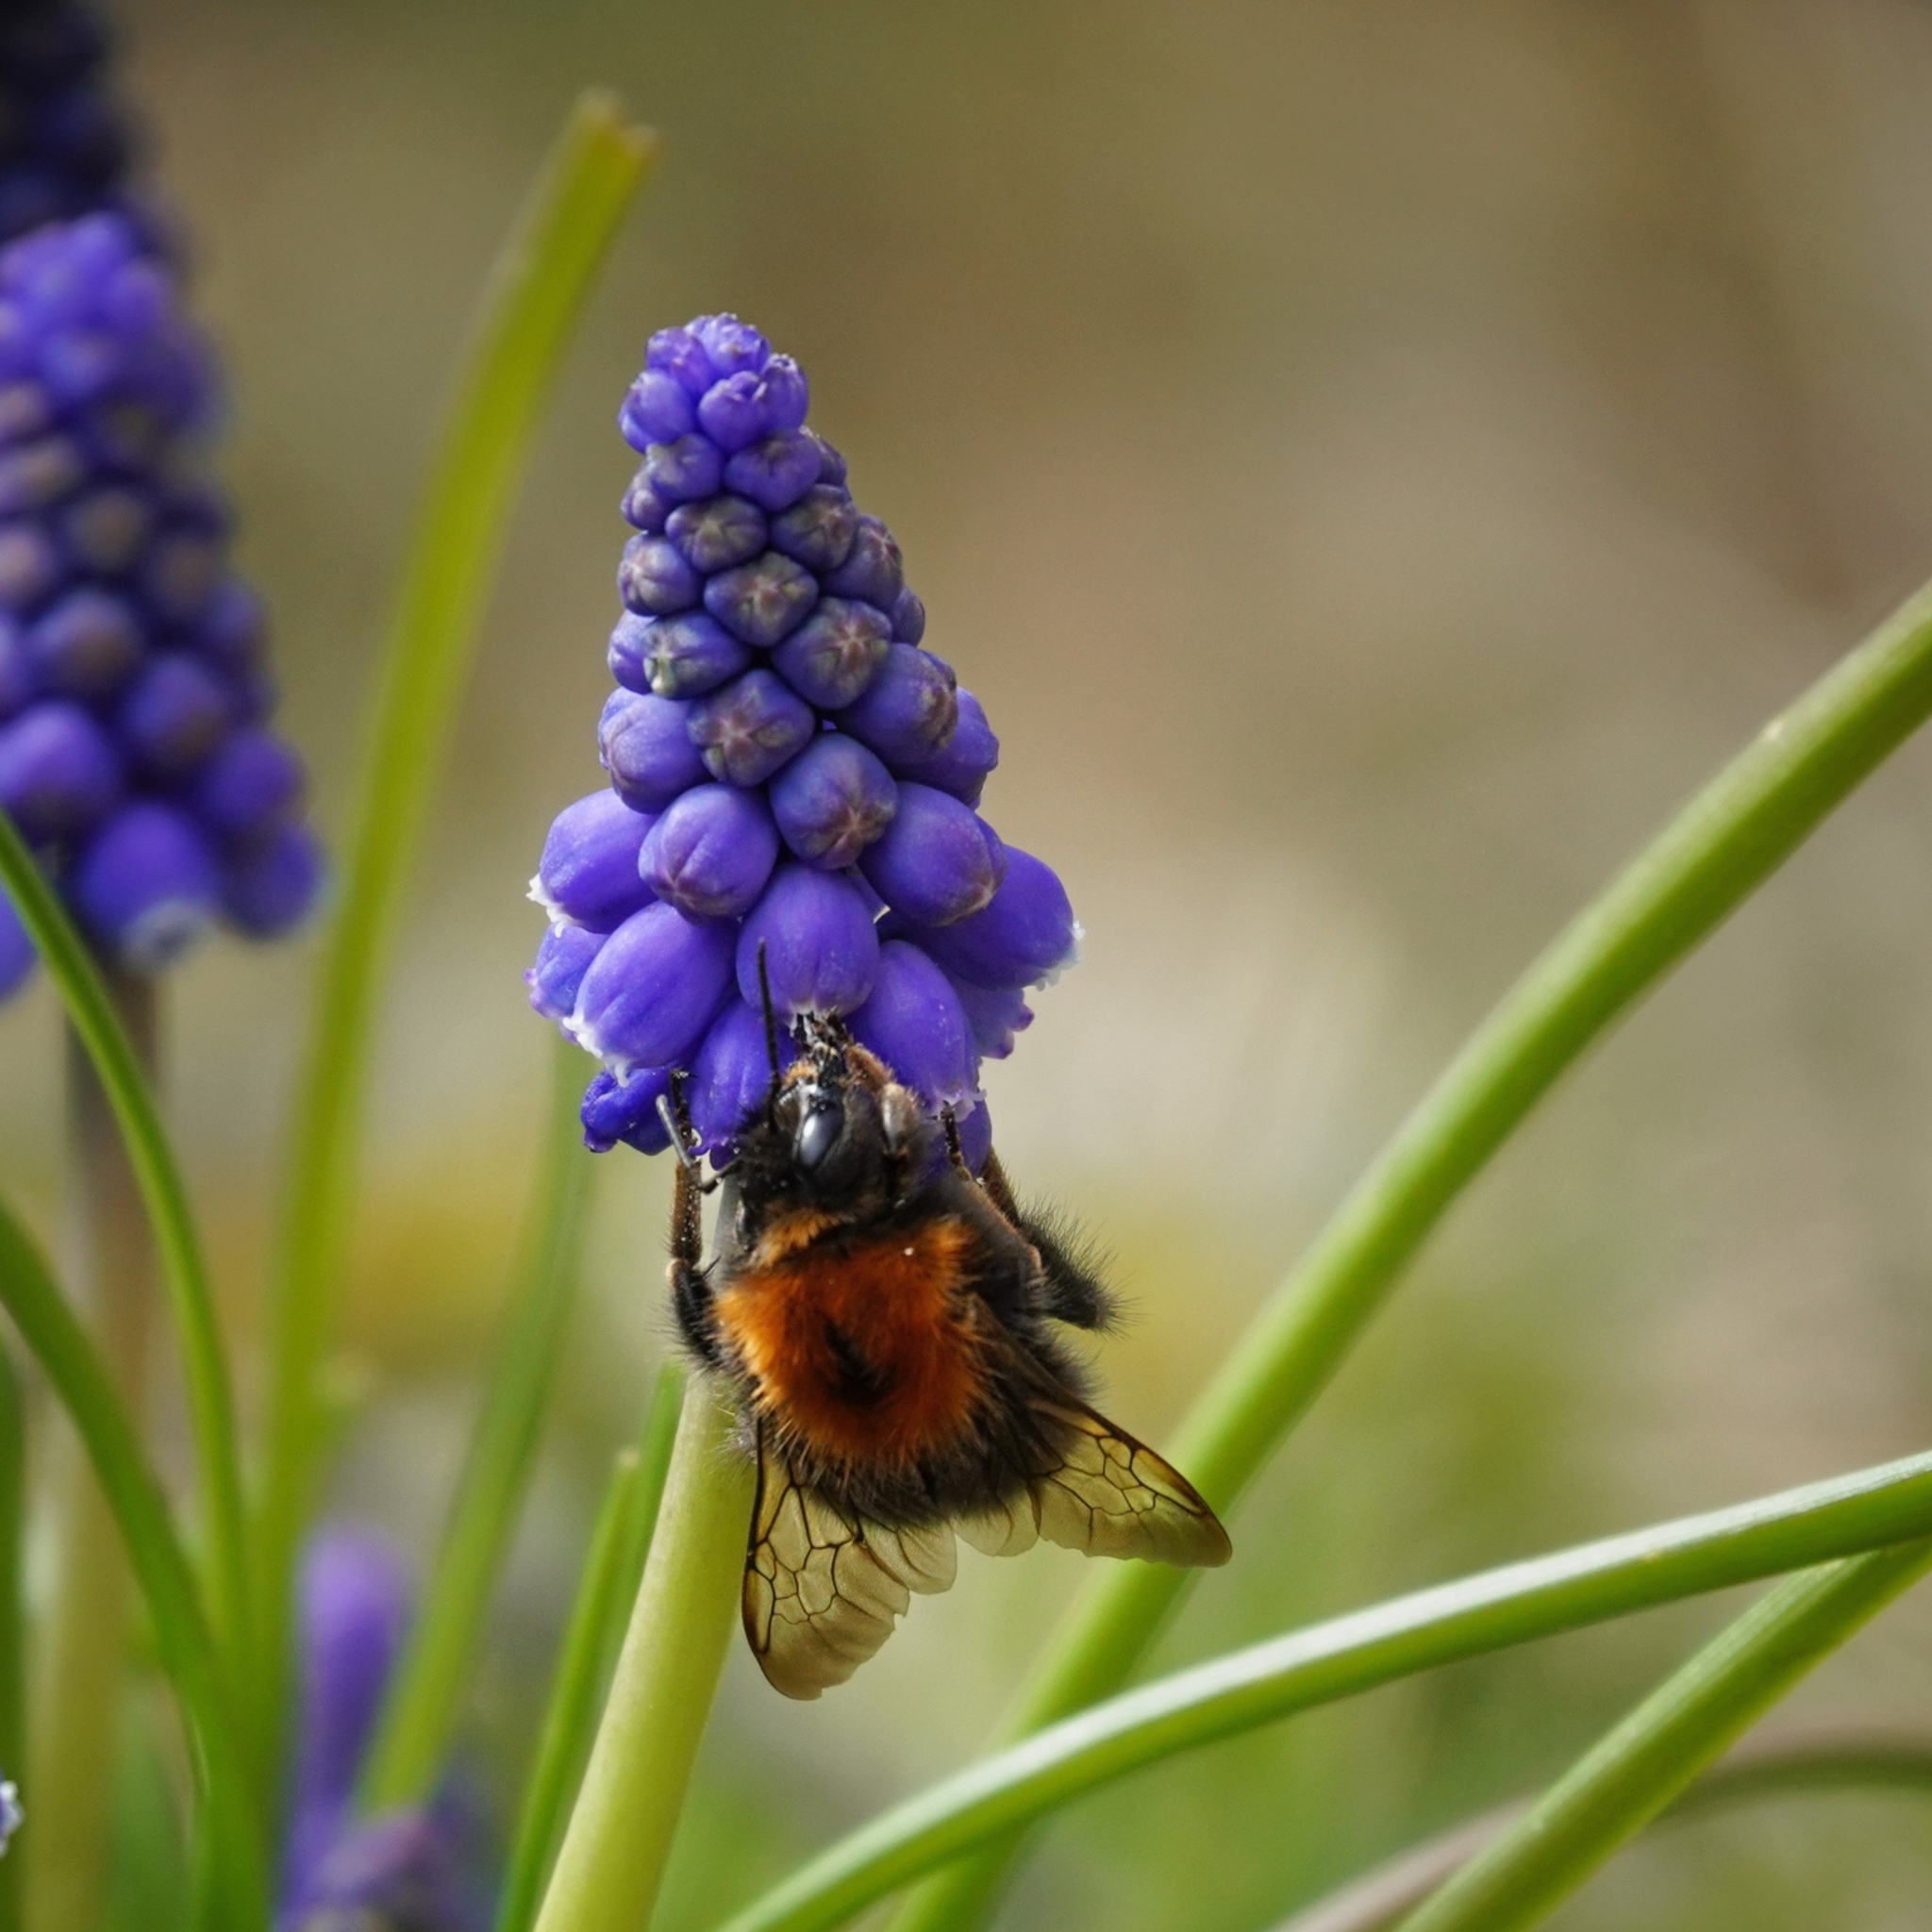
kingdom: Animalia
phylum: Arthropoda
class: Insecta
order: Hymenoptera
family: Apidae
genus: Bombus
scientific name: Bombus hypnorum
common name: New garden bumblebee
